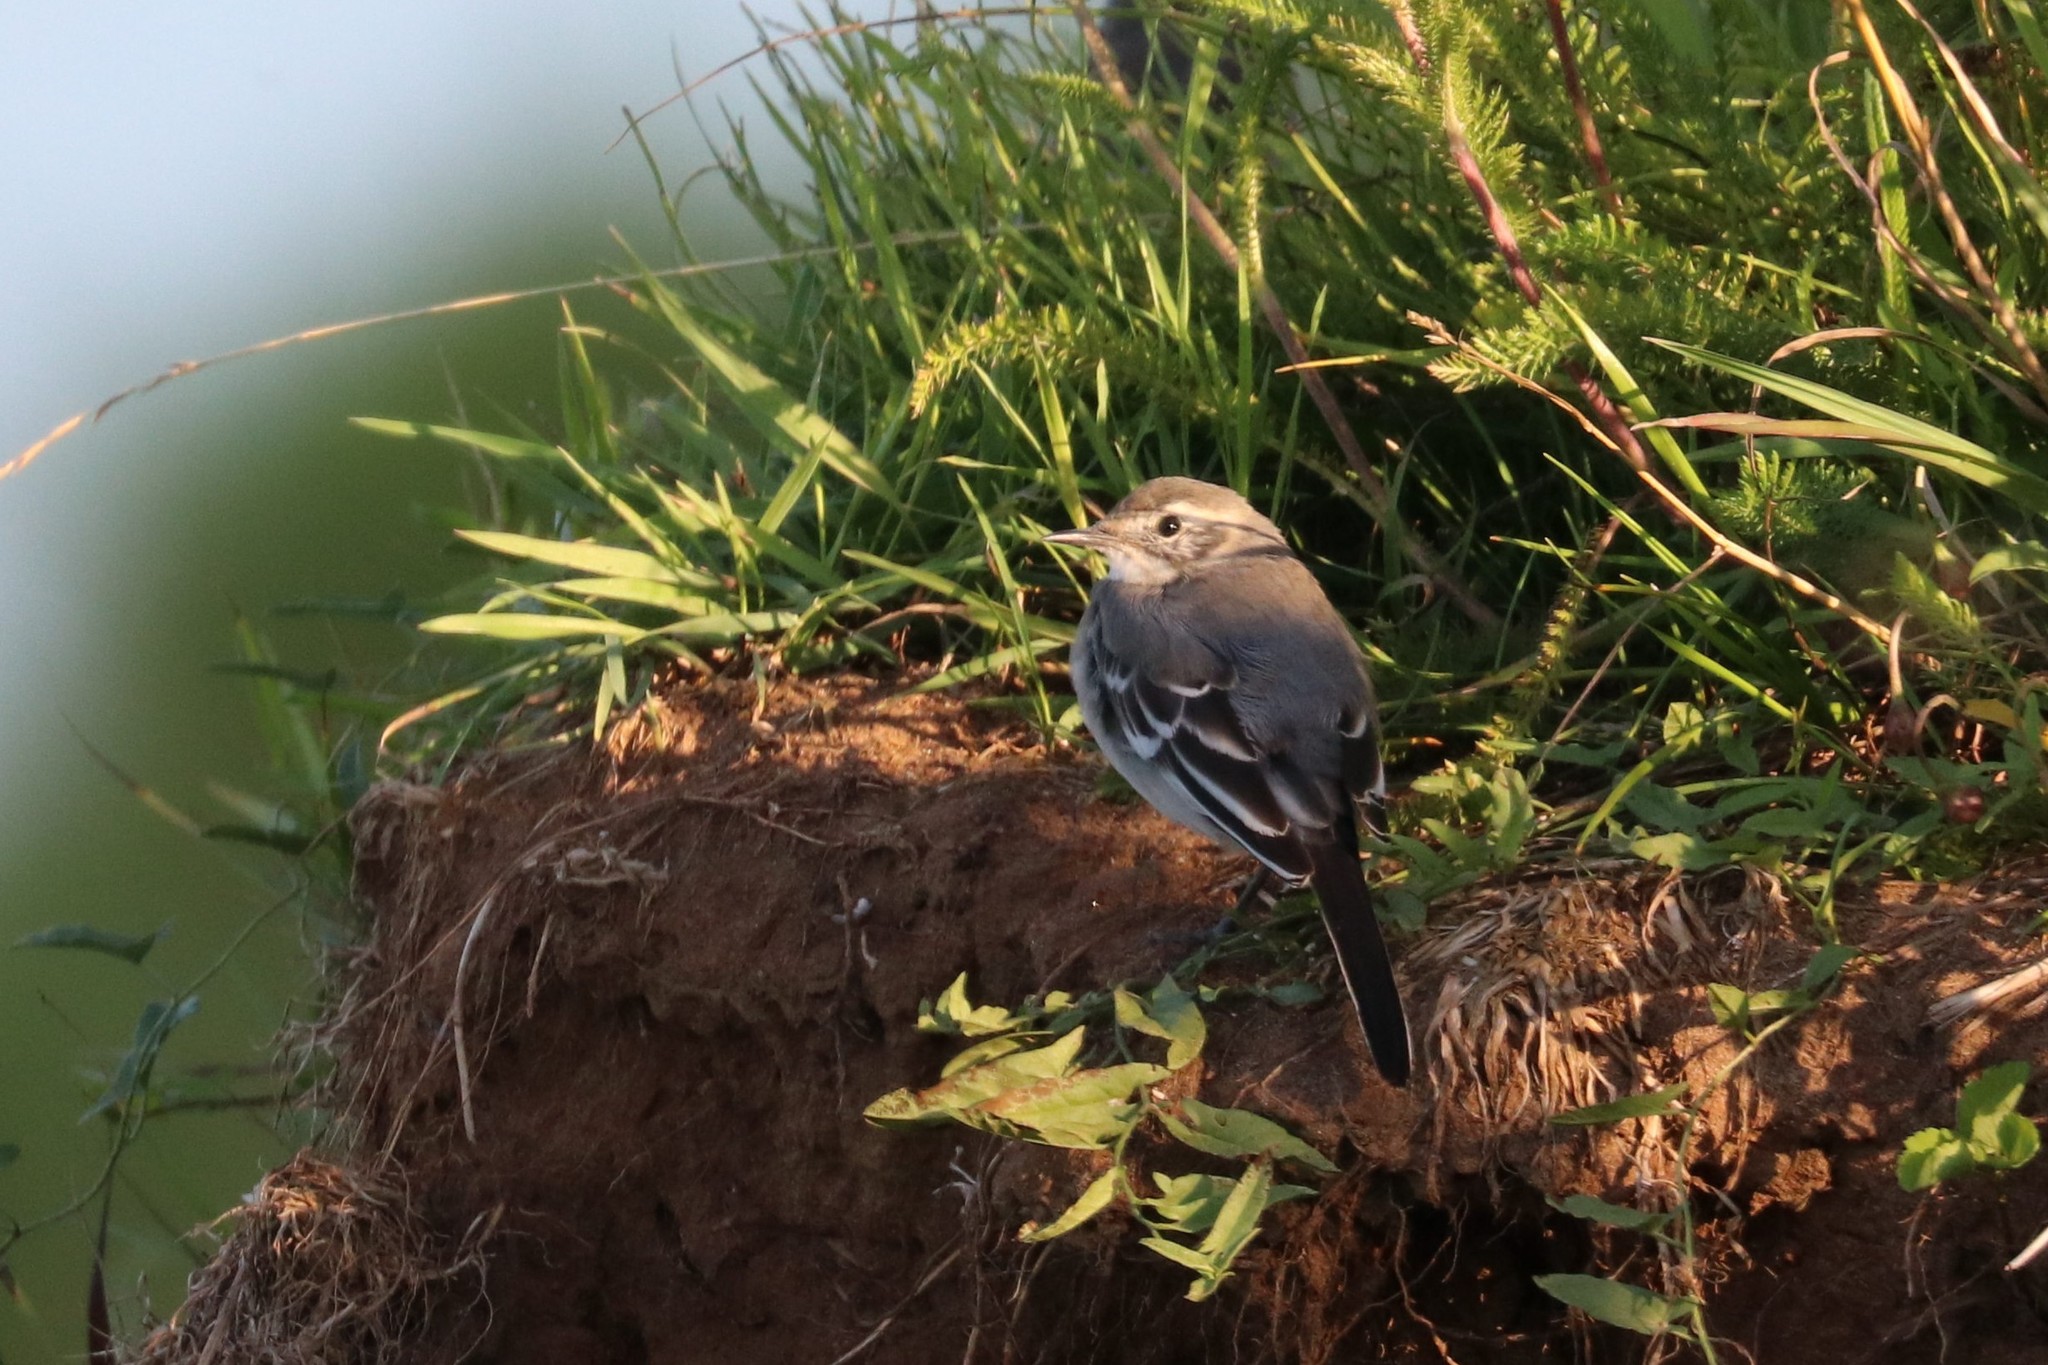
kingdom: Animalia
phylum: Chordata
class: Aves
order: Passeriformes
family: Motacillidae
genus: Motacilla
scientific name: Motacilla alba
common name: White wagtail
